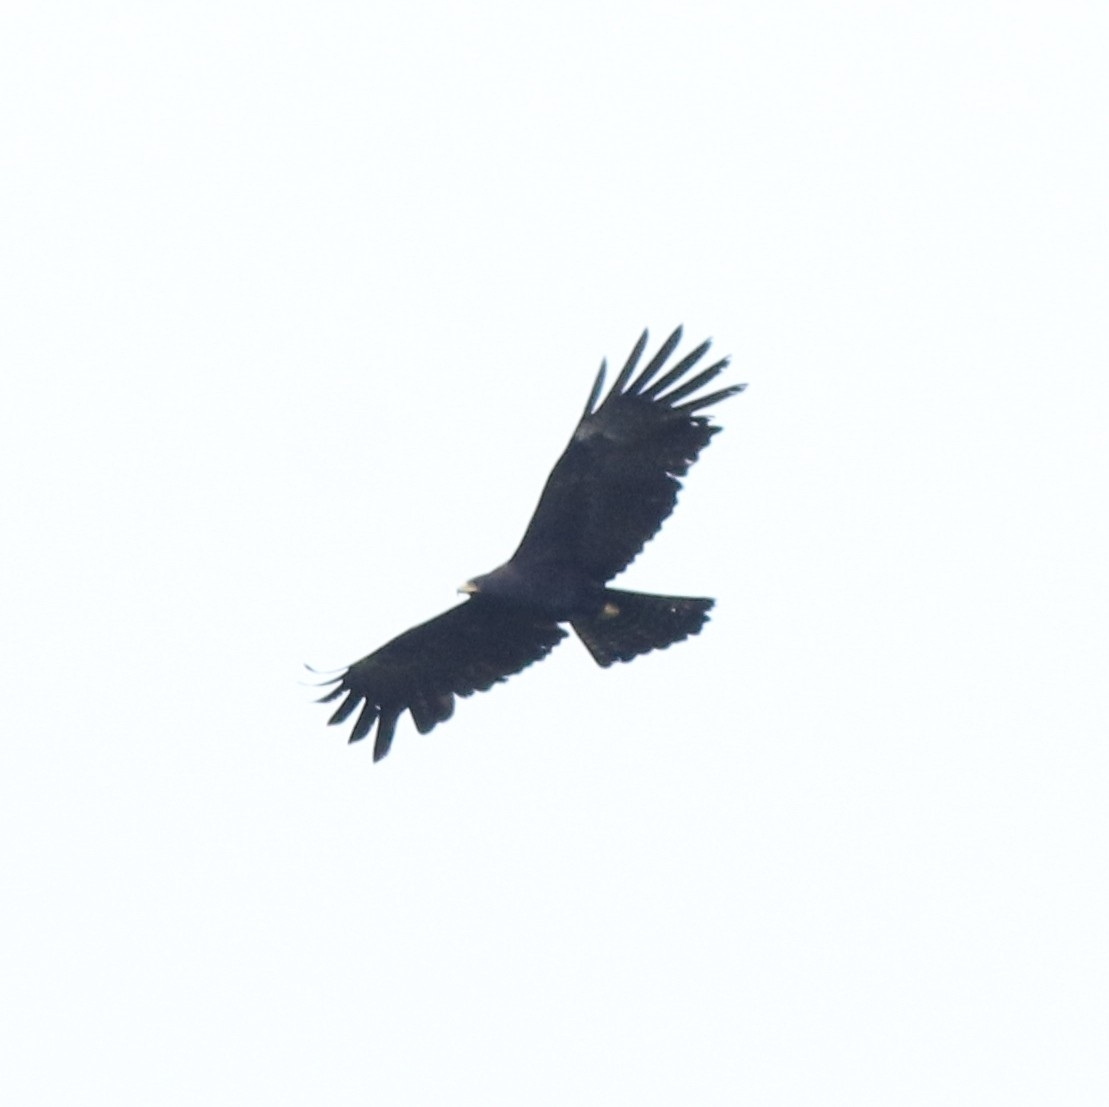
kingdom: Animalia
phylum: Chordata
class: Aves
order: Accipitriformes
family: Accipitridae
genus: Ictinaetus
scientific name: Ictinaetus malayensis
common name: Black eagle
